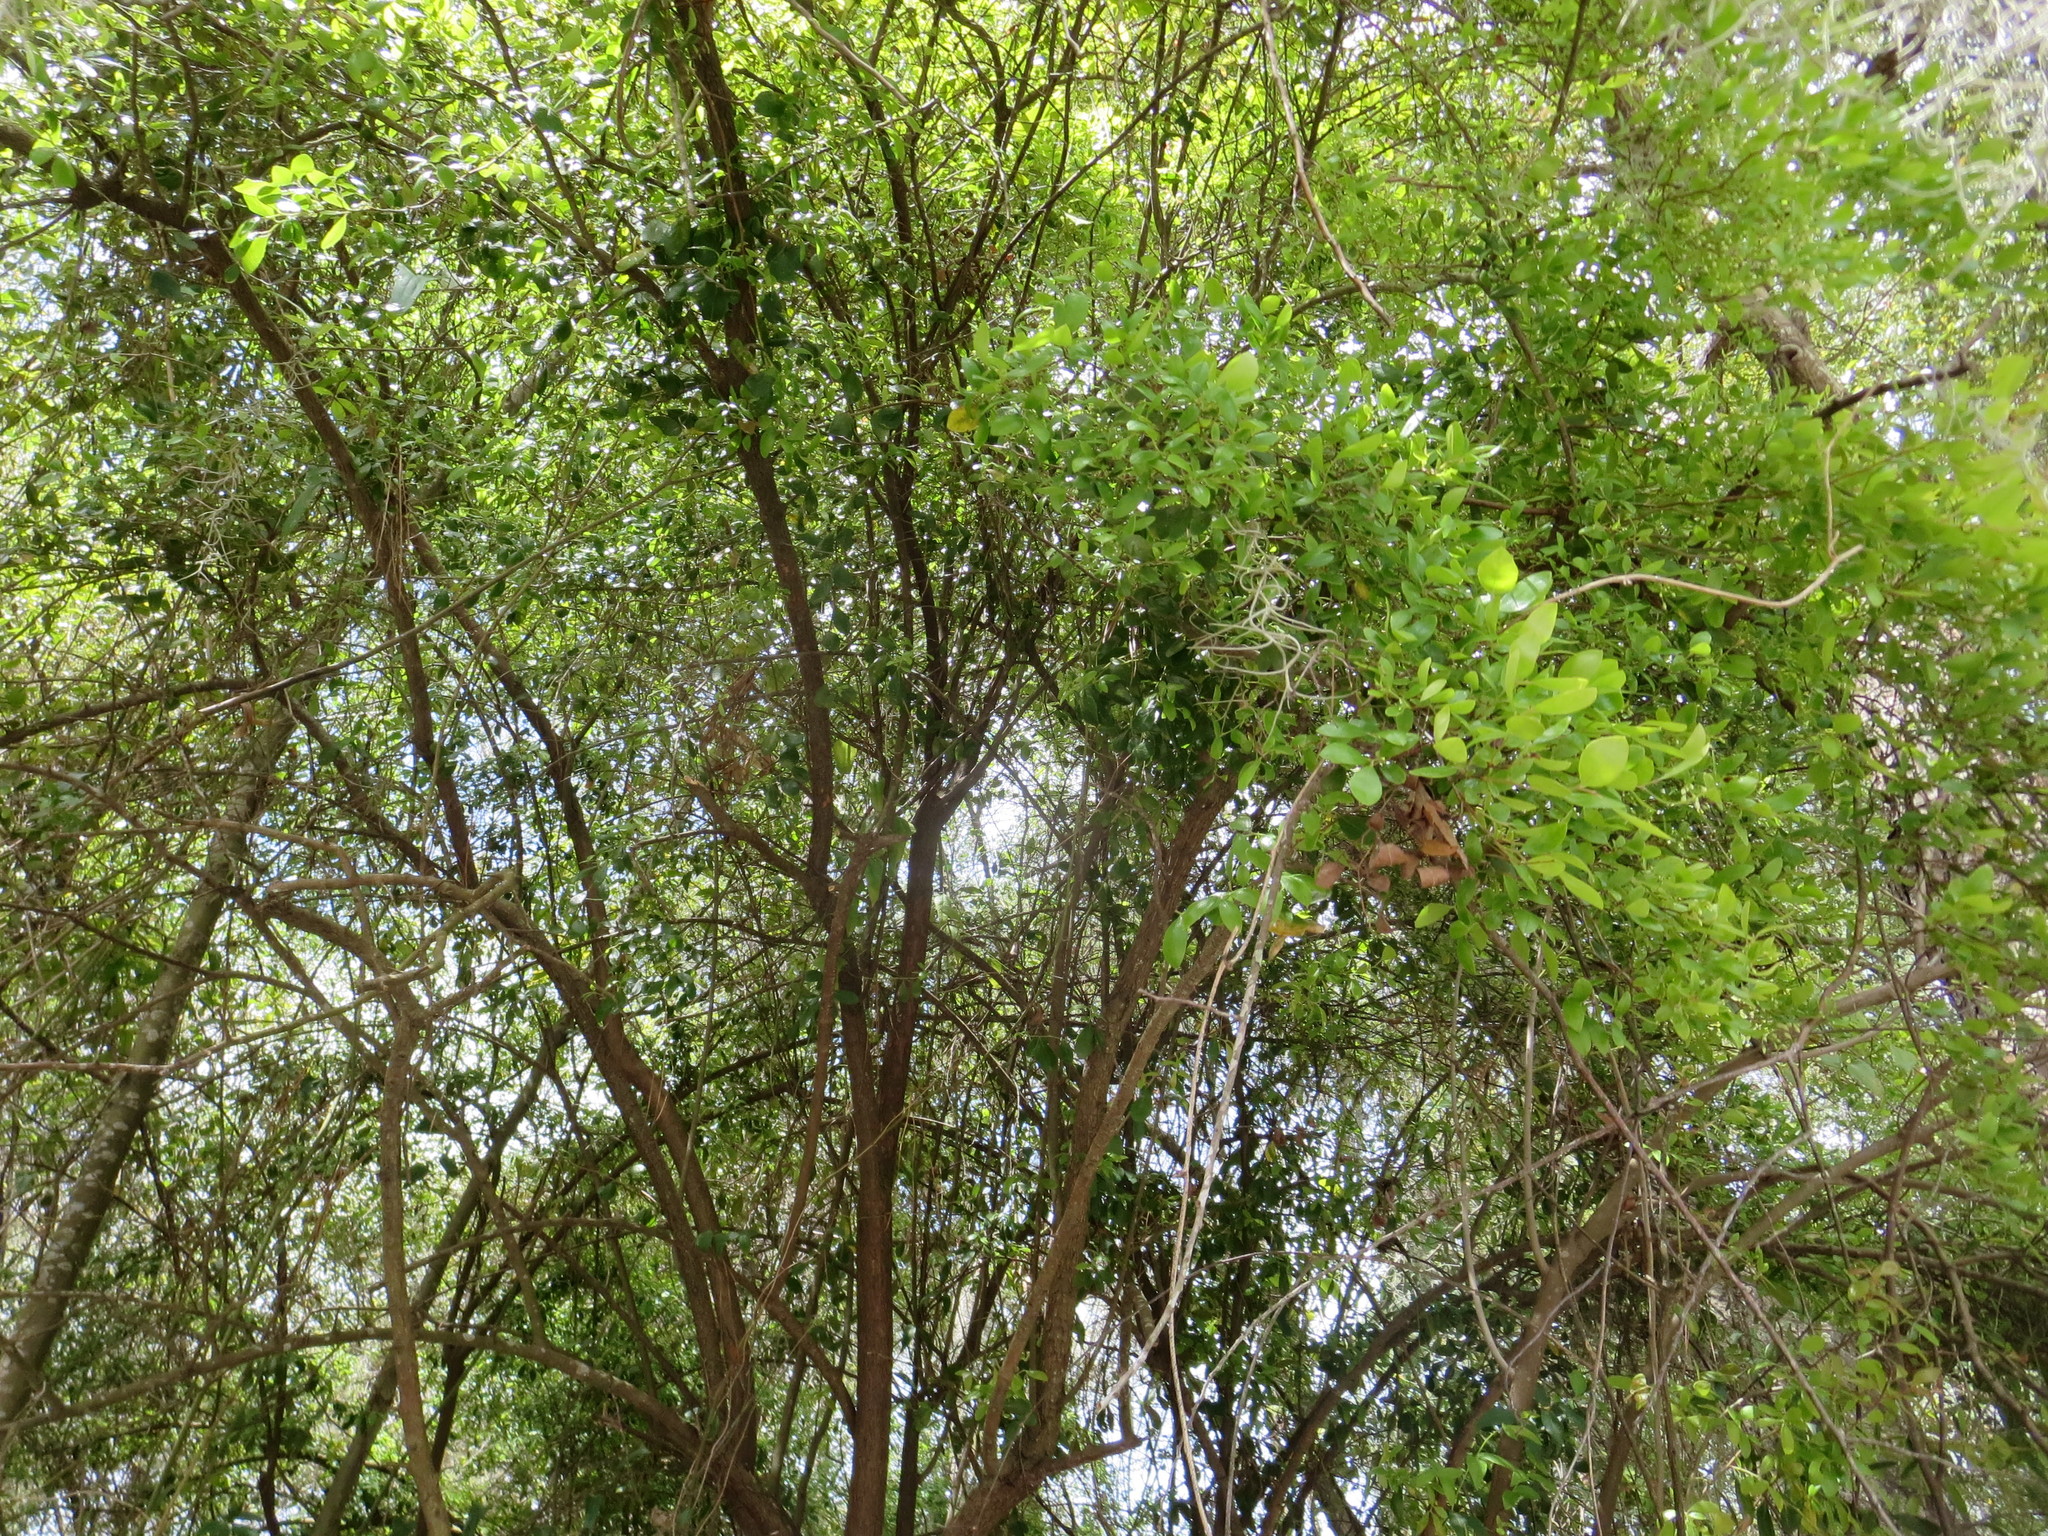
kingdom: Plantae
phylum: Tracheophyta
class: Magnoliopsida
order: Ericales
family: Ericaceae
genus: Vaccinium
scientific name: Vaccinium arboreum
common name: Farkleberry
